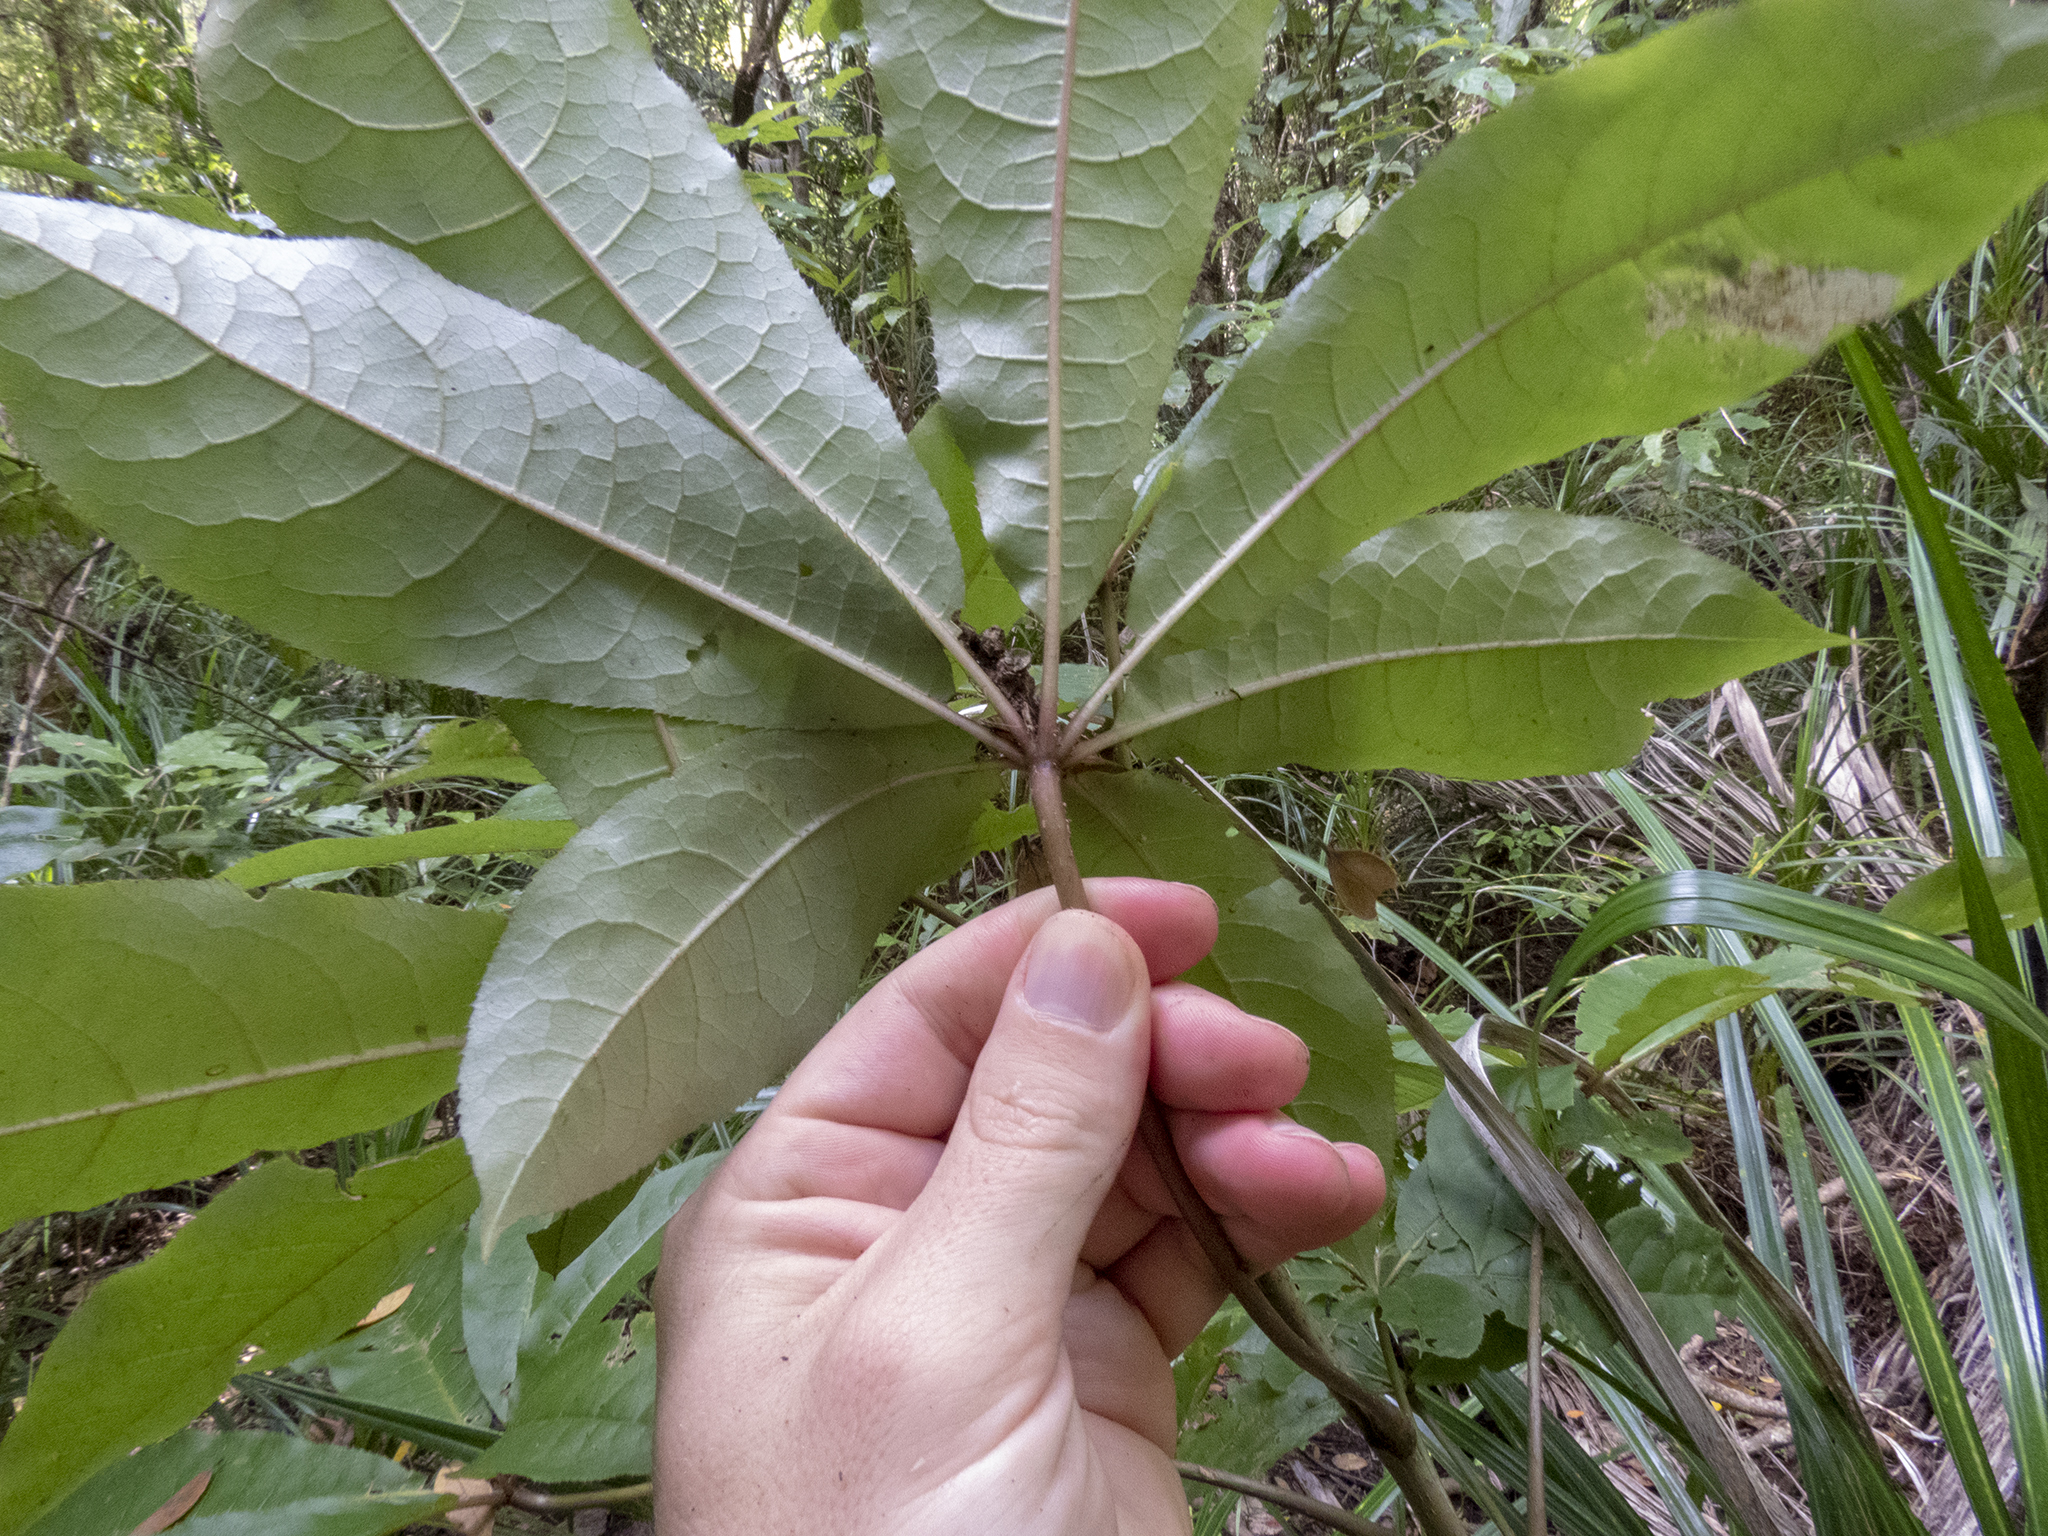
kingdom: Plantae
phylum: Tracheophyta
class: Magnoliopsida
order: Apiales
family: Araliaceae
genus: Schefflera
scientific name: Schefflera digitata
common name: Pate
